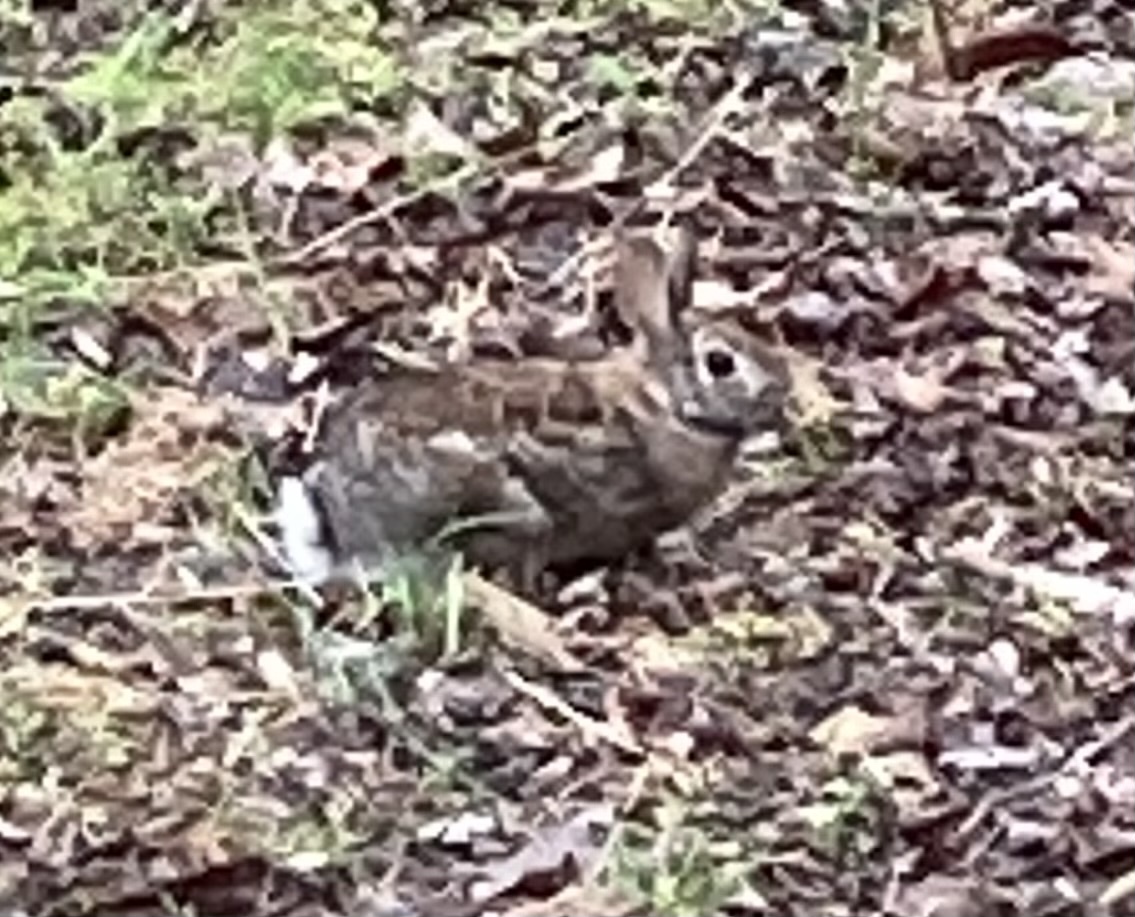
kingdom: Animalia
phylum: Chordata
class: Mammalia
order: Lagomorpha
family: Leporidae
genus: Sylvilagus
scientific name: Sylvilagus floridanus
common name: Eastern cottontail
